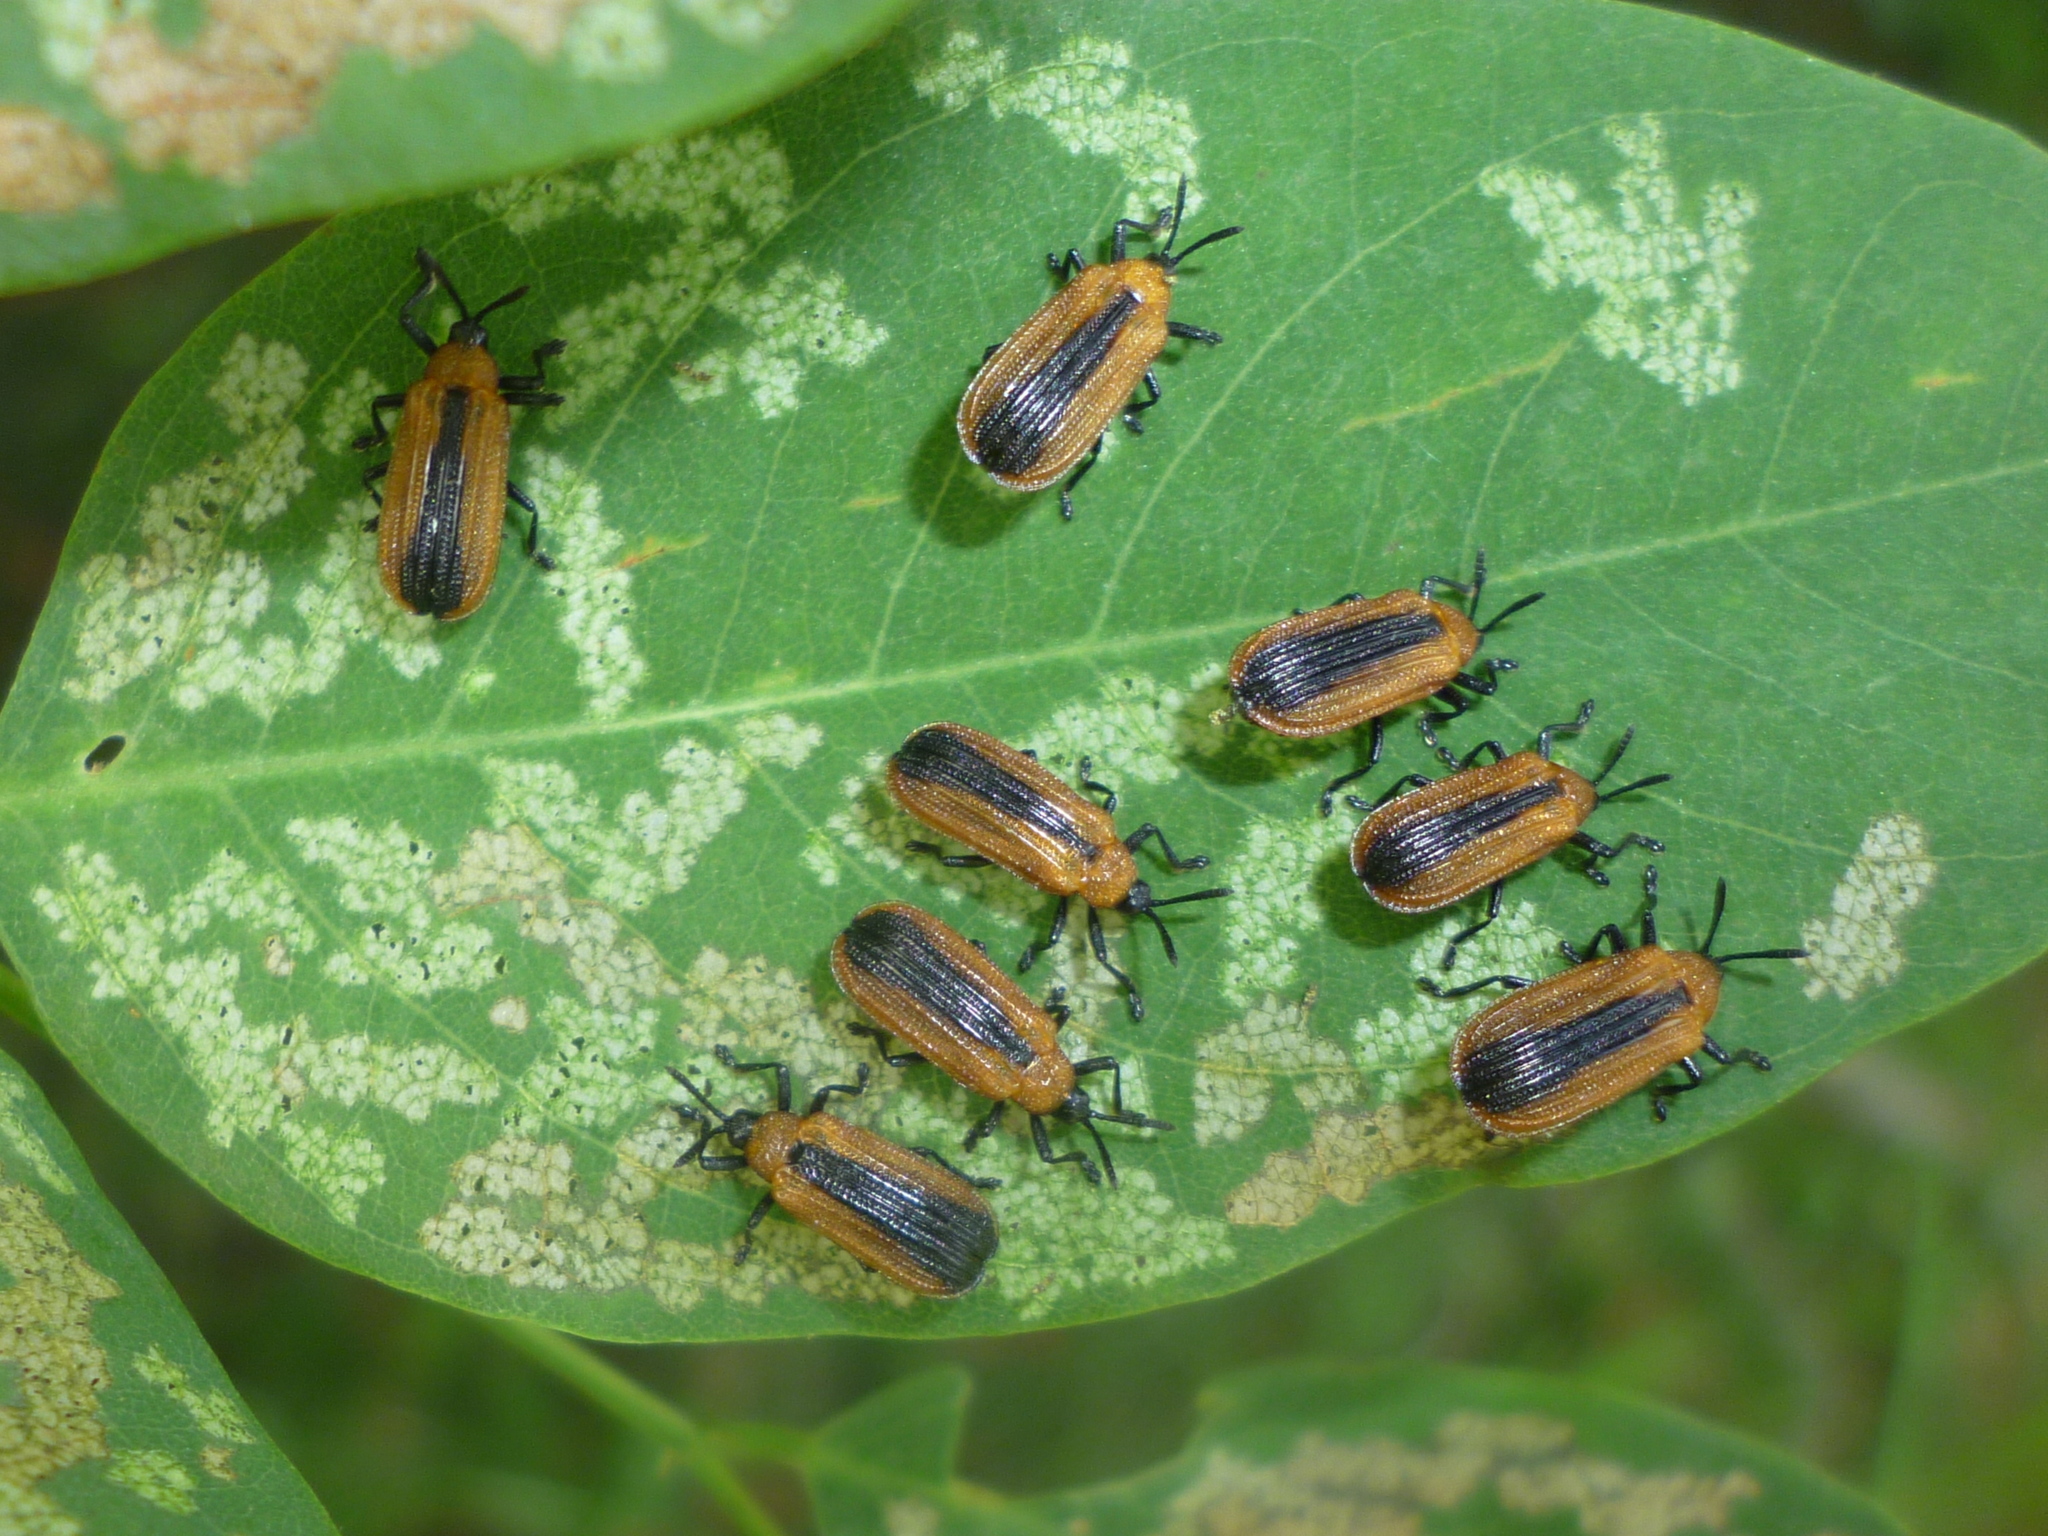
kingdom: Animalia
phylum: Arthropoda
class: Insecta
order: Coleoptera
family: Chrysomelidae
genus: Odontota
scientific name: Odontota dorsalis
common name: Locust leaf-miner beetle
